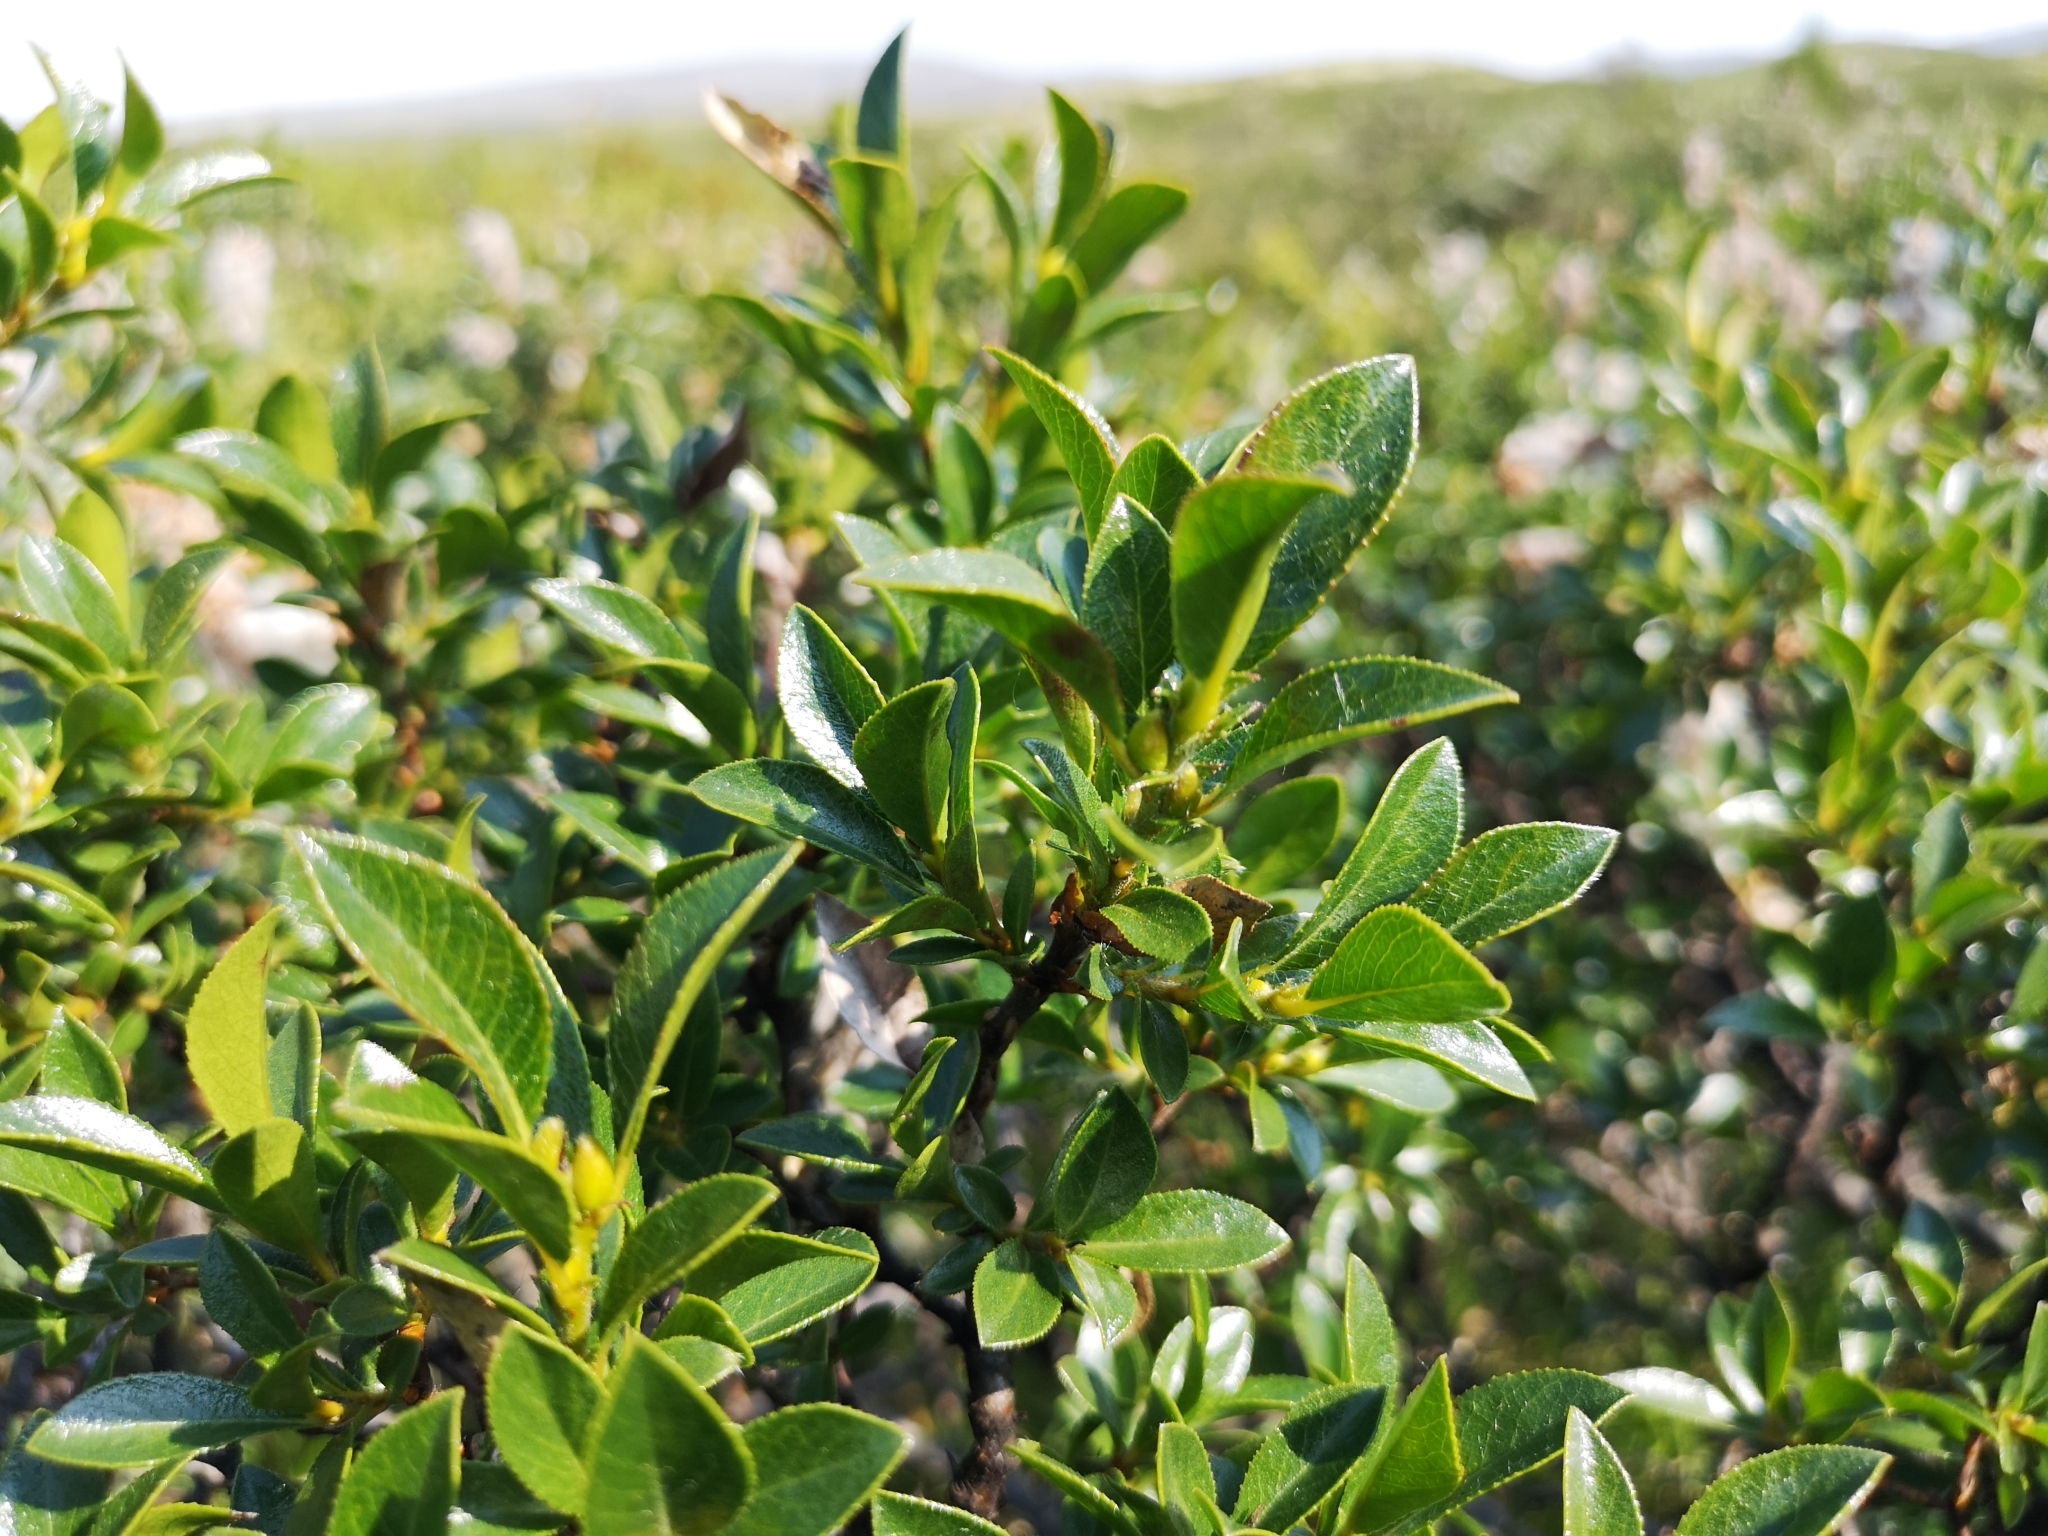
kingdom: Plantae
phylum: Tracheophyta
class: Magnoliopsida
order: Malpighiales
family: Salicaceae
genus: Salix
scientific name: Salix myrsinites
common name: Myrtle willow
